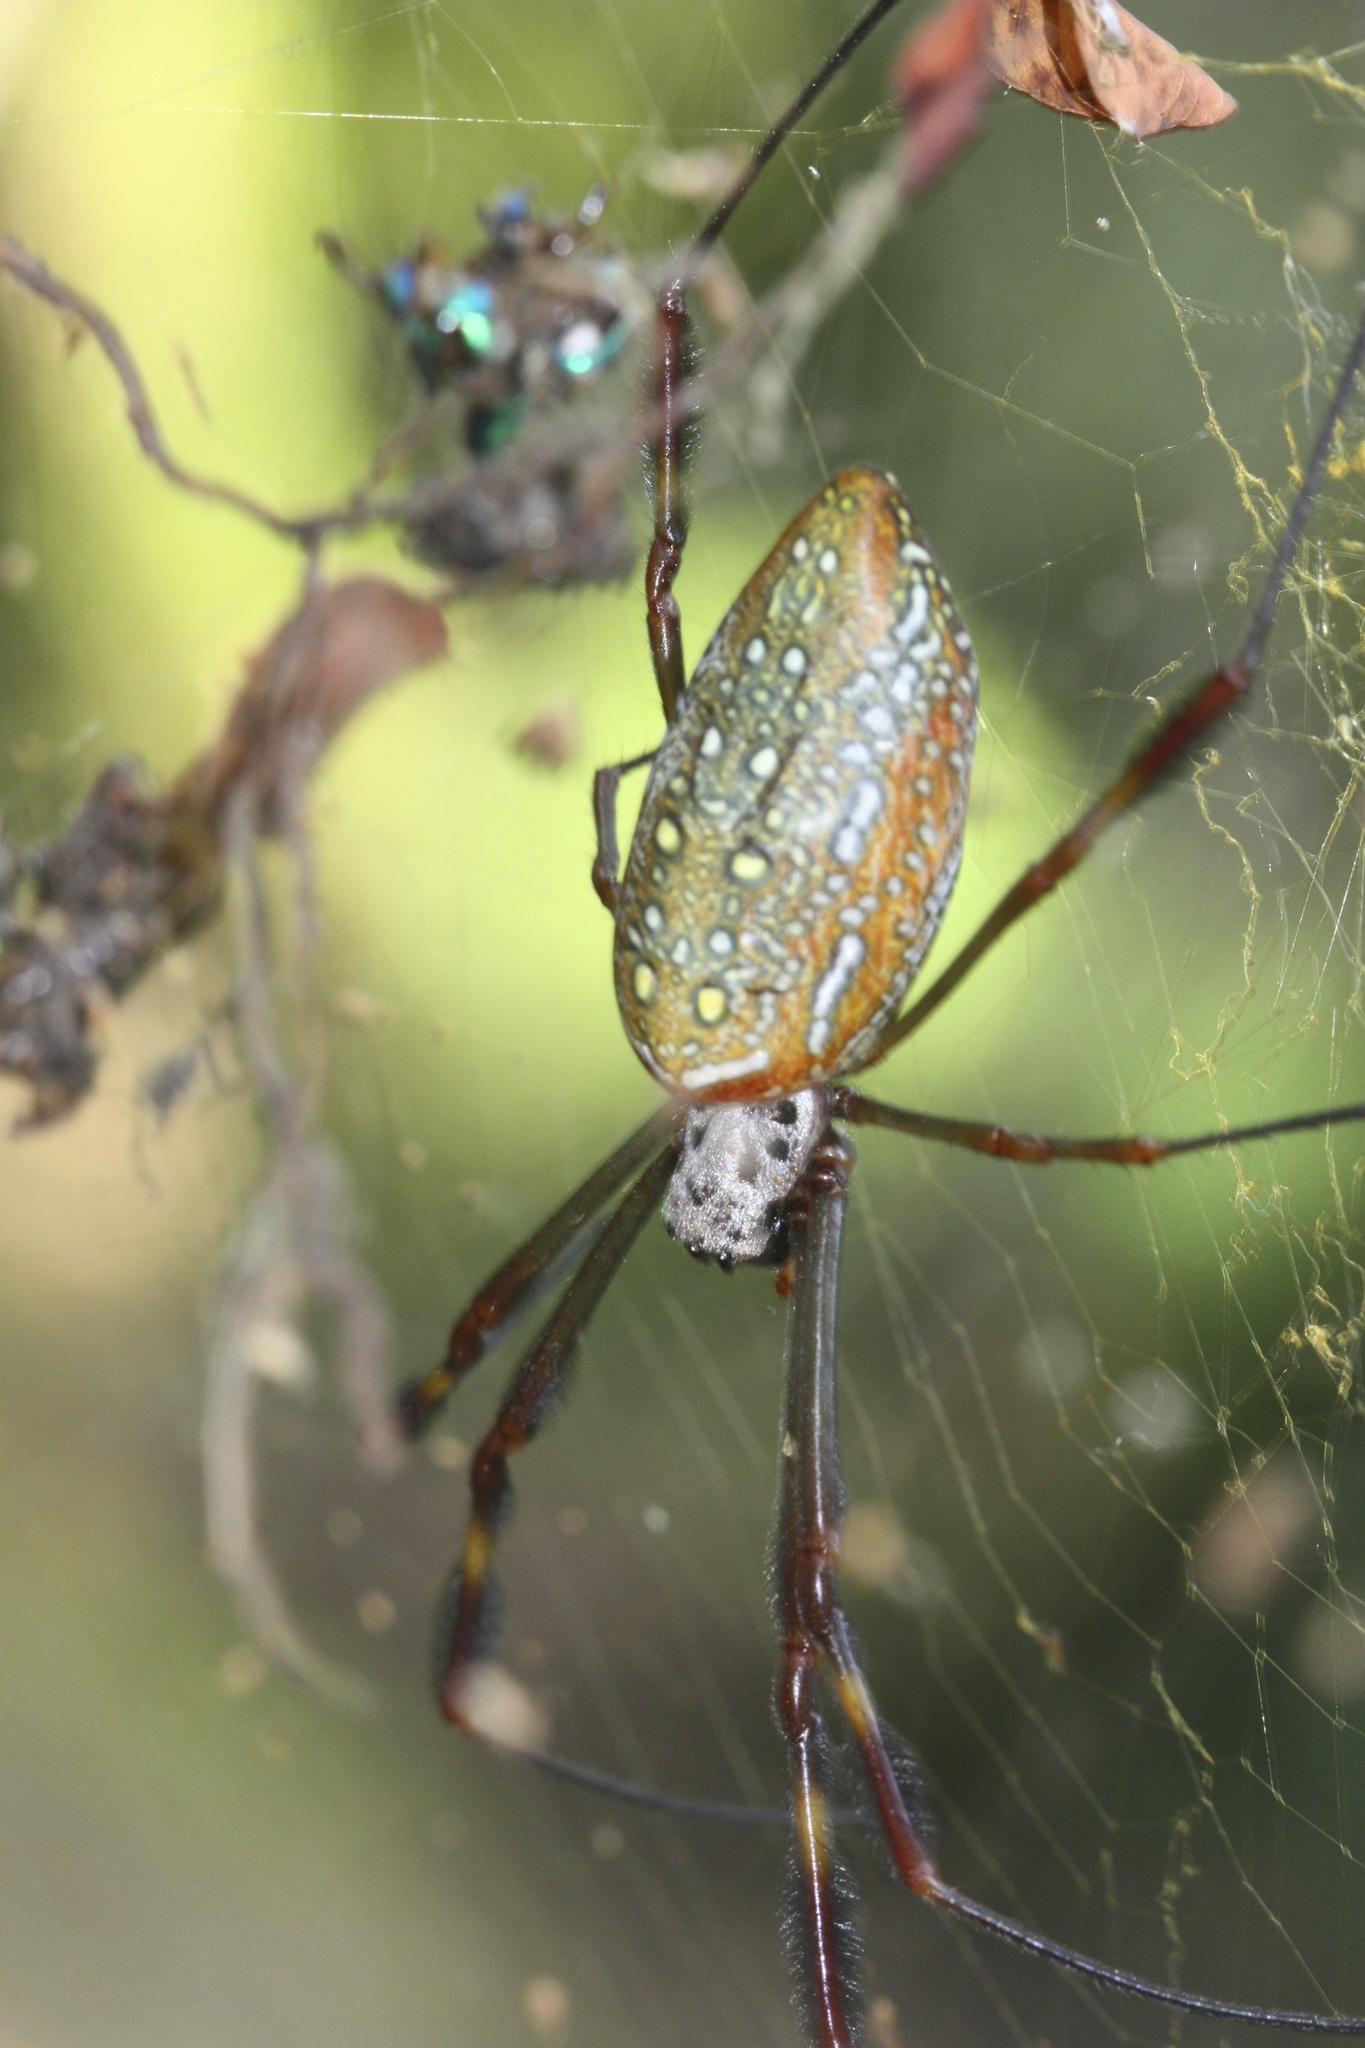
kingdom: Animalia
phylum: Arthropoda
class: Arachnida
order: Araneae
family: Araneidae
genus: Trichonephila
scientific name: Trichonephila clavipes
